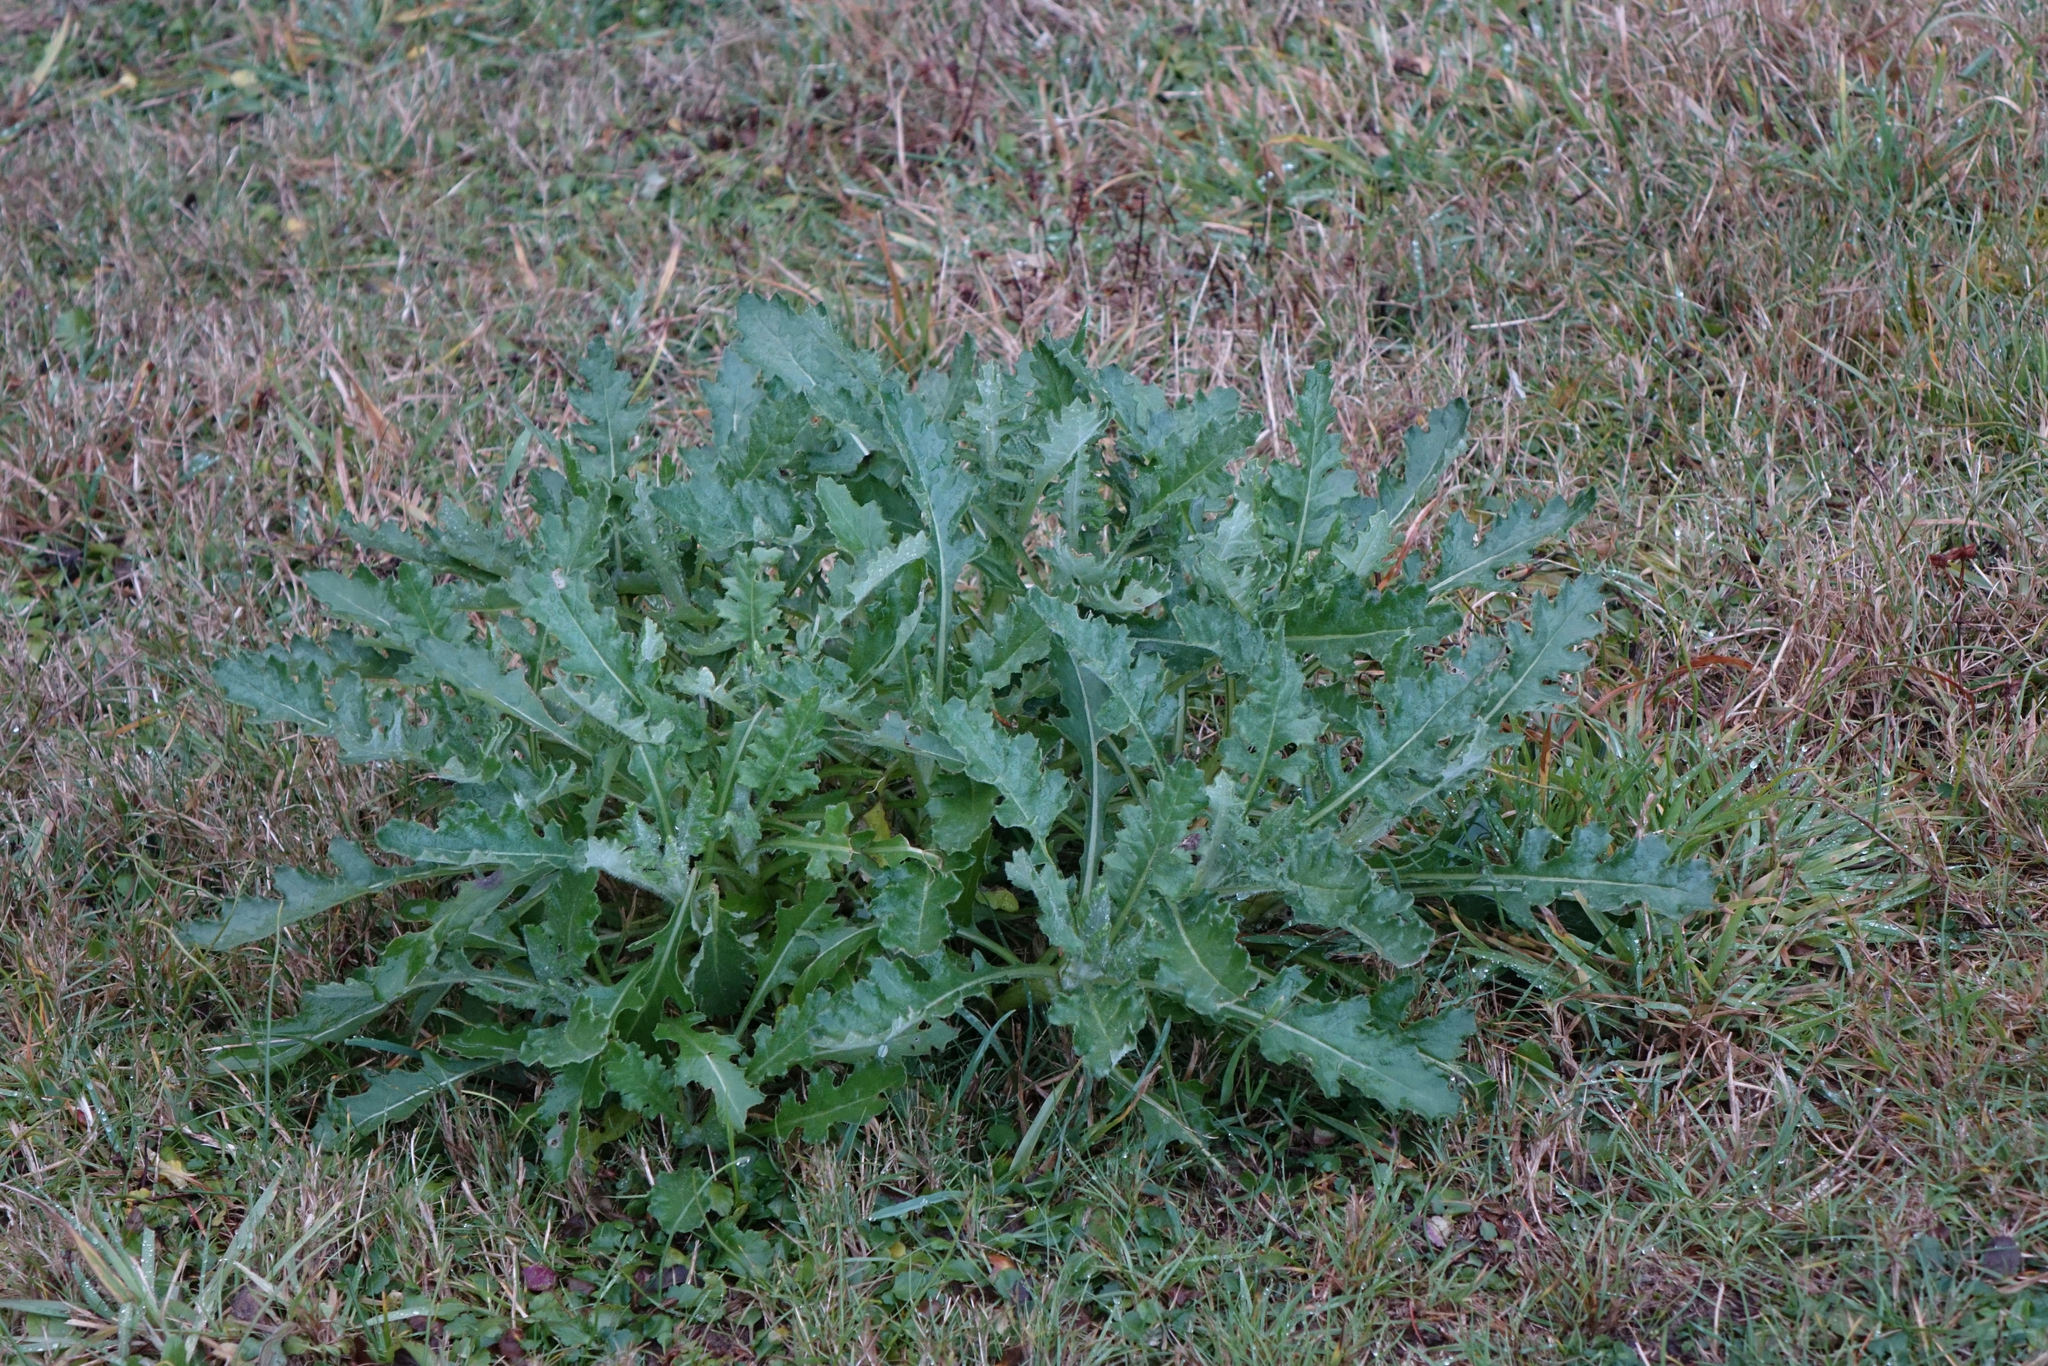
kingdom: Plantae
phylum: Tracheophyta
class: Magnoliopsida
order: Asterales
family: Asteraceae
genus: Senecio
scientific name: Senecio glomeratus
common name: Cutleaf burnweed
